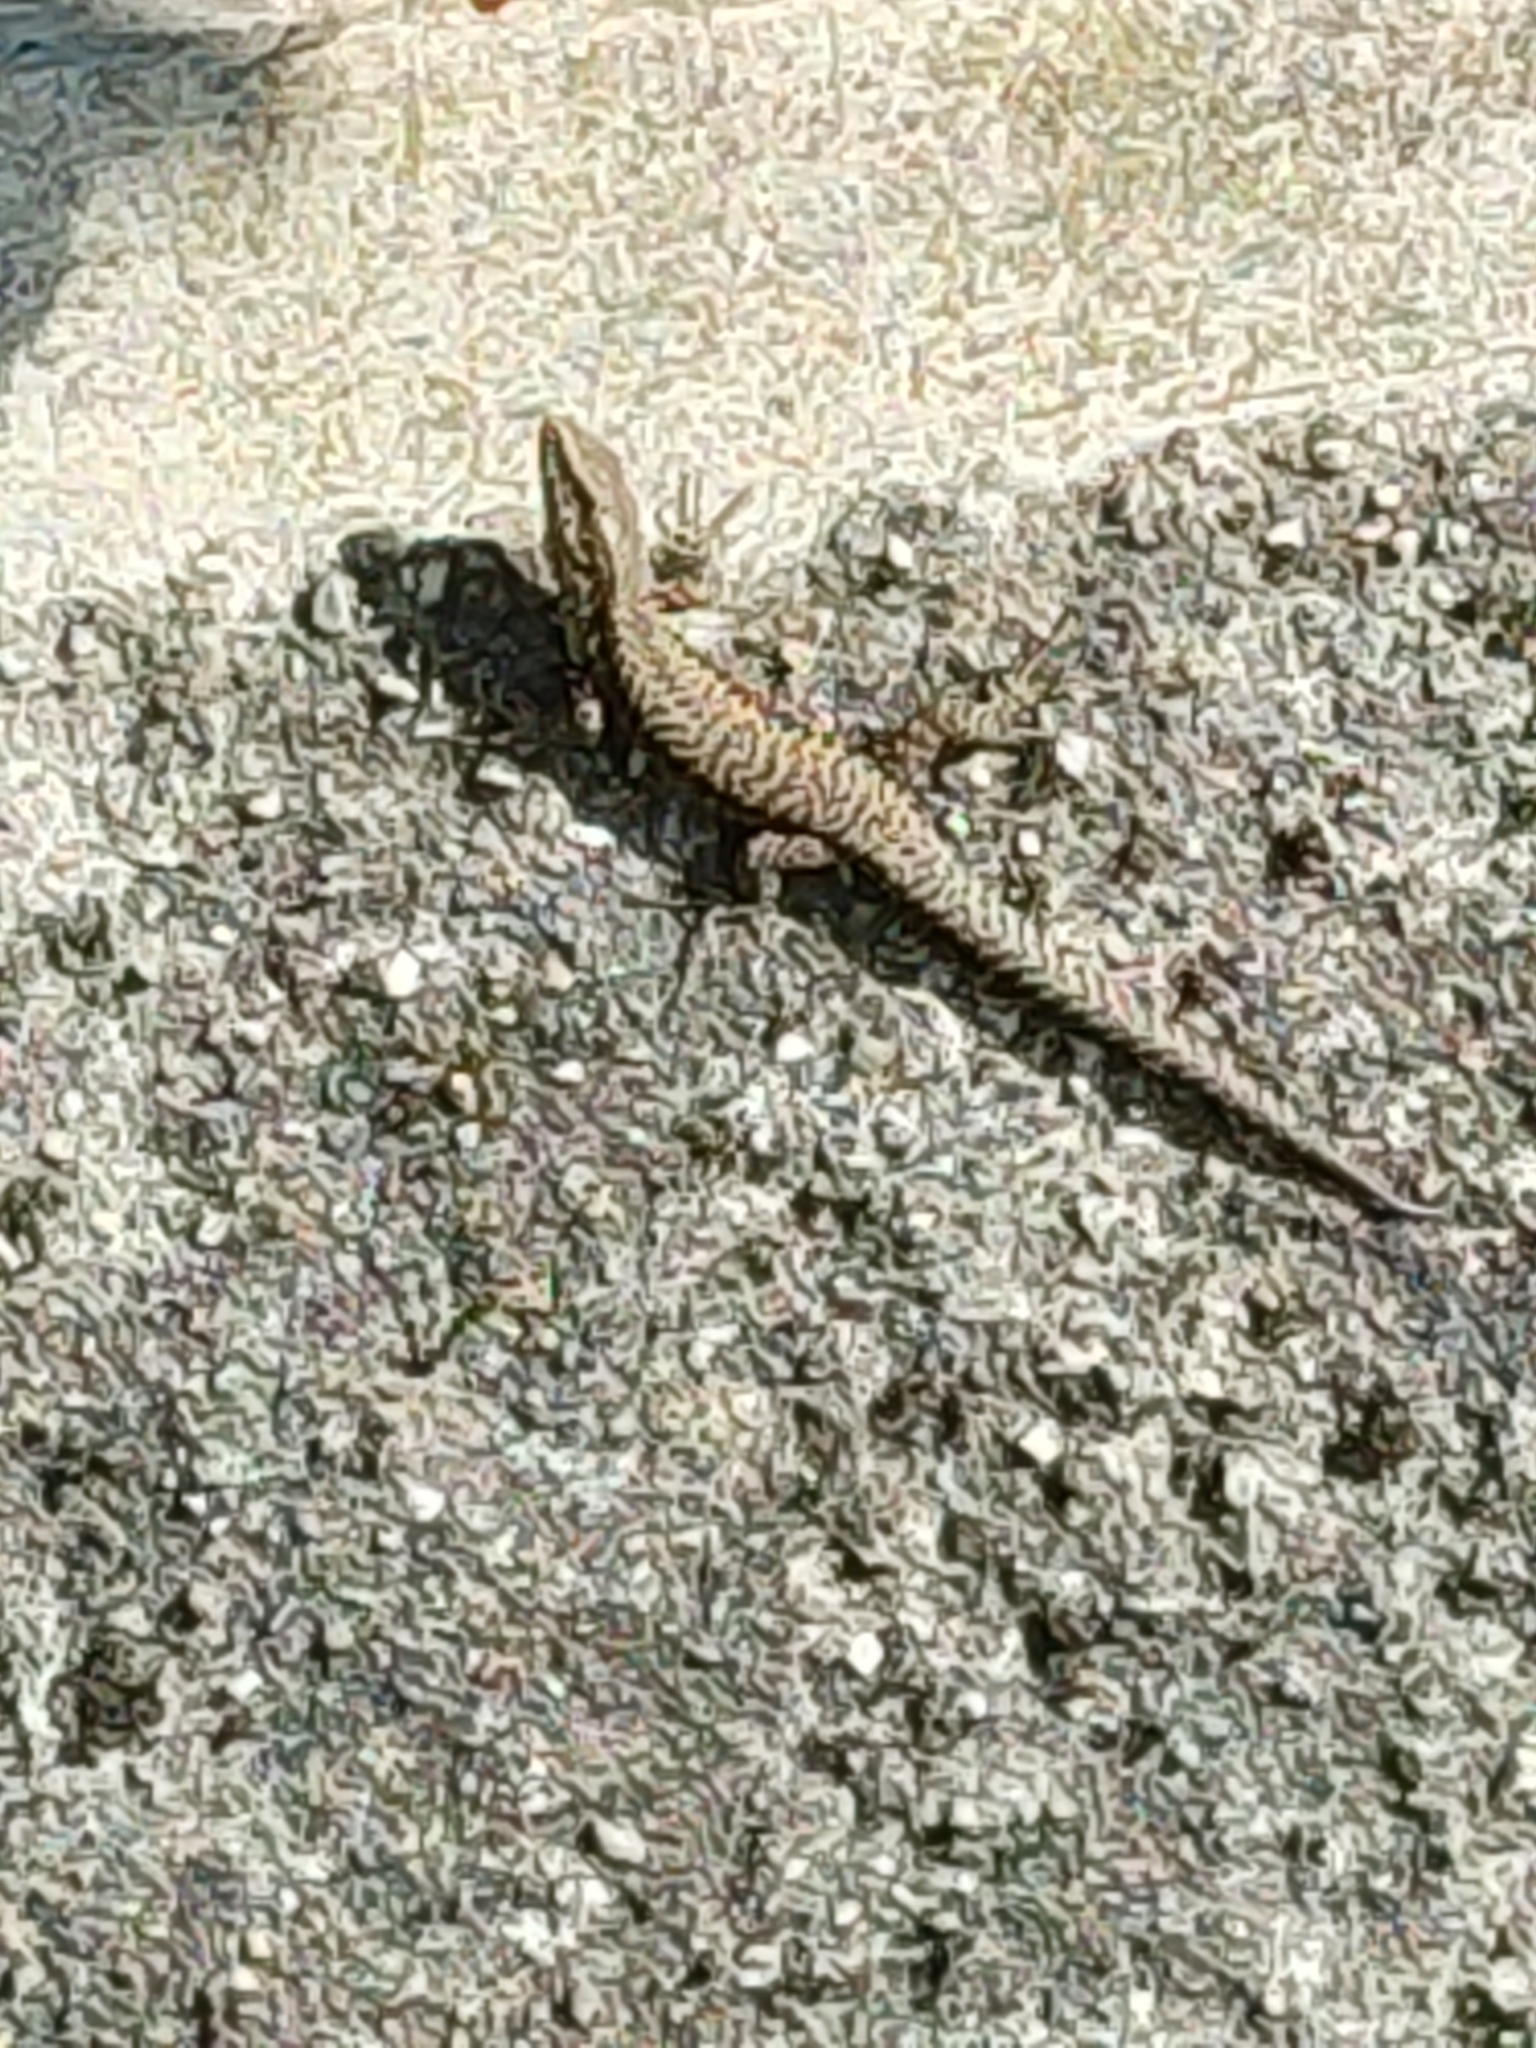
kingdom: Animalia
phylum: Chordata
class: Squamata
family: Lacertidae
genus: Podarcis
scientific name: Podarcis muralis
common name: Common wall lizard
